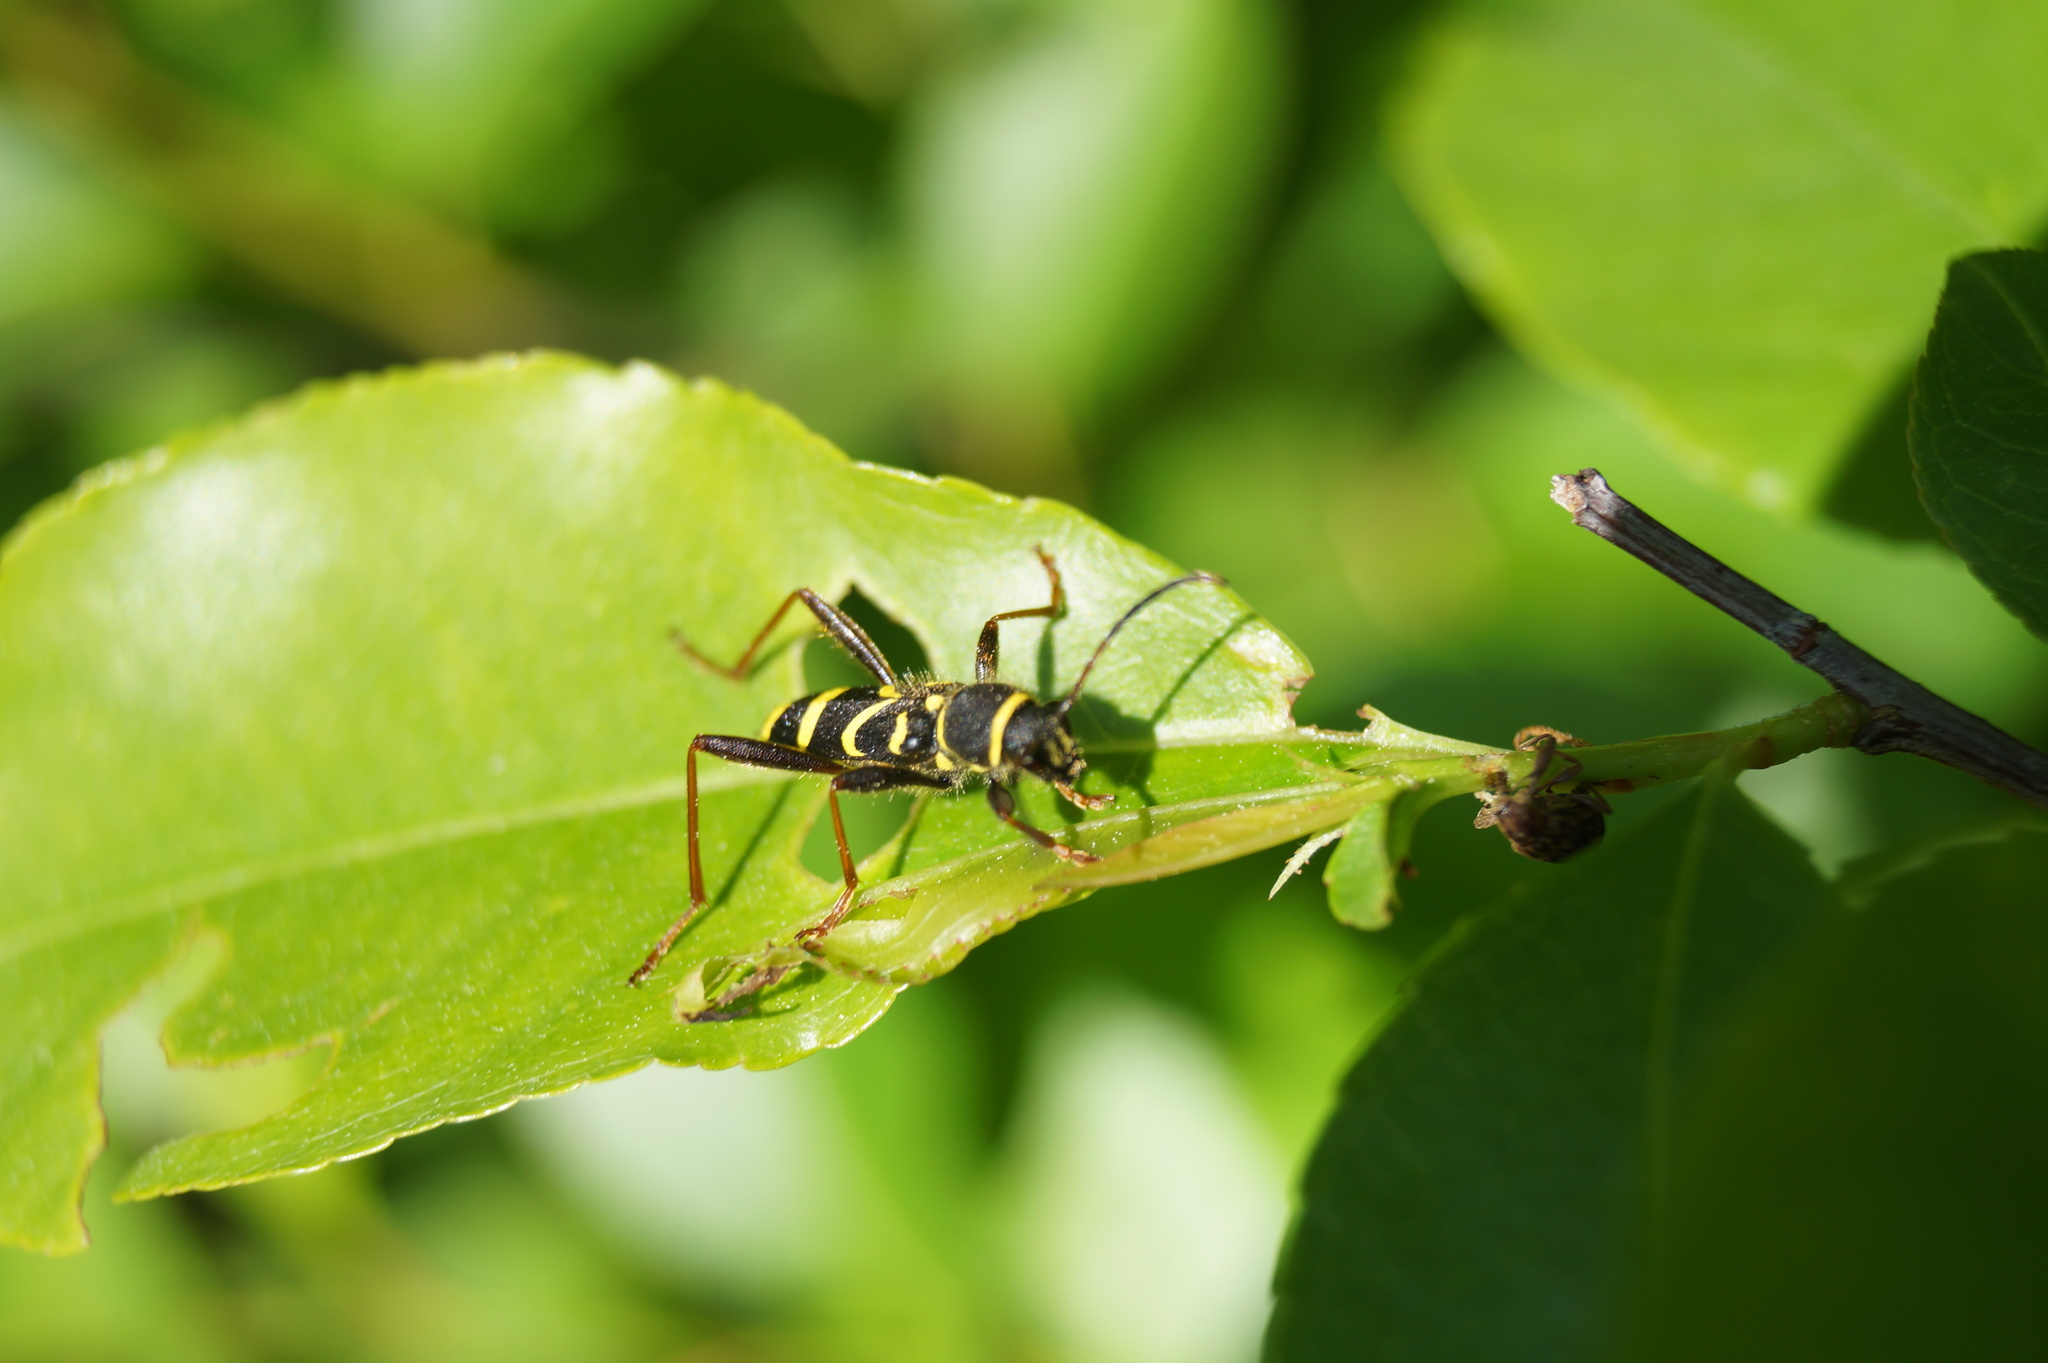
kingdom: Animalia
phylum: Arthropoda
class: Insecta
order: Coleoptera
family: Cerambycidae
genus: Clytus
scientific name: Clytus arietis
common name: Wasp beetle
